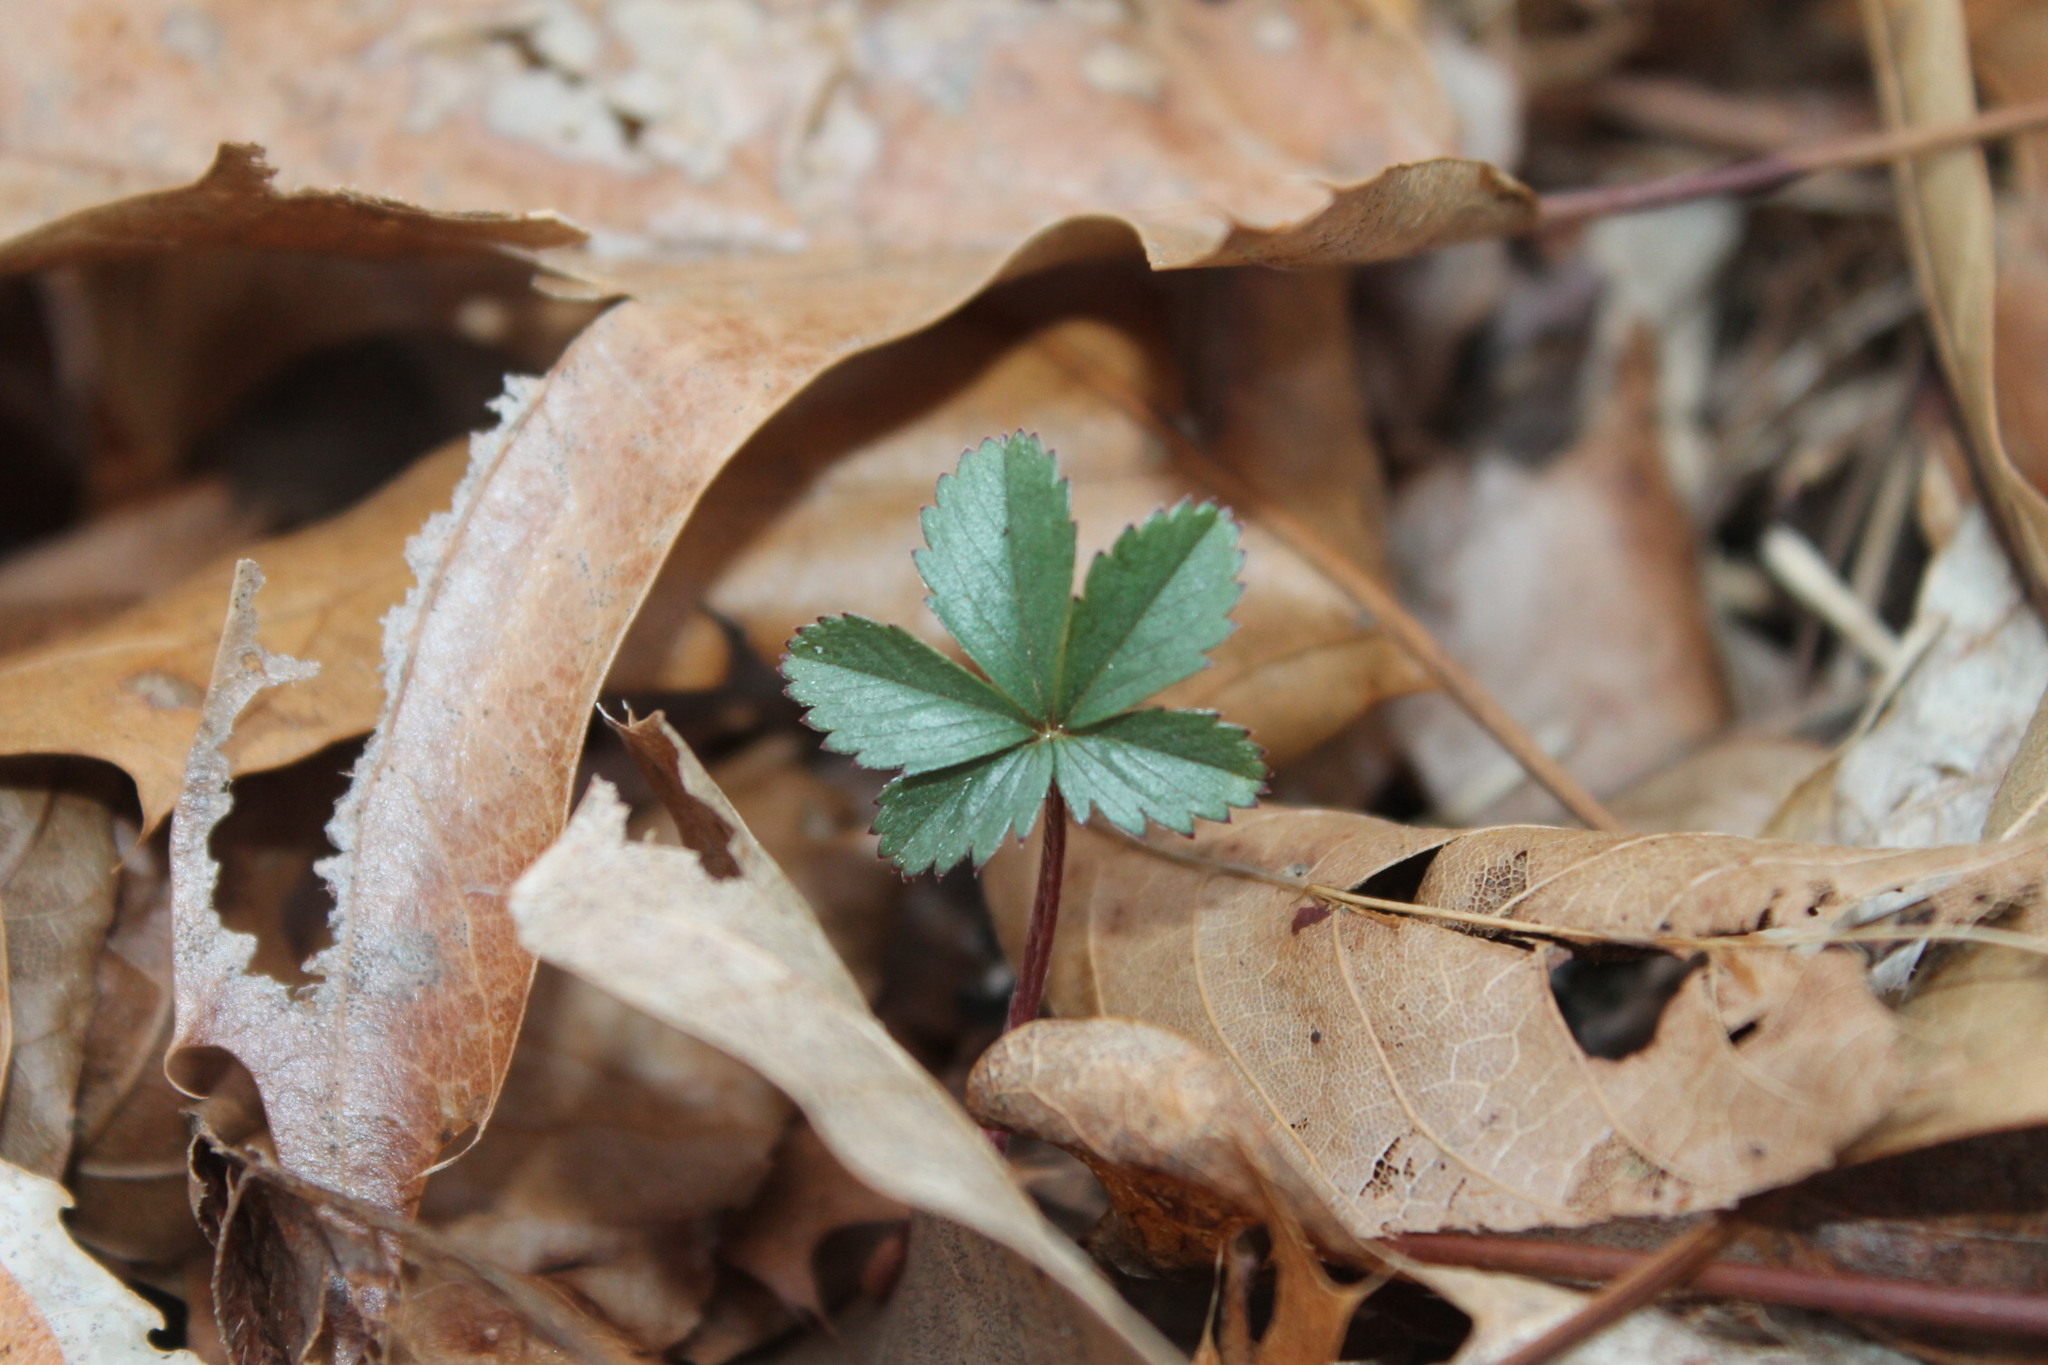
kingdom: Plantae
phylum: Tracheophyta
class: Magnoliopsida
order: Rosales
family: Rosaceae
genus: Potentilla
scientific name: Potentilla canadensis
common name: Canada cinquefoil
